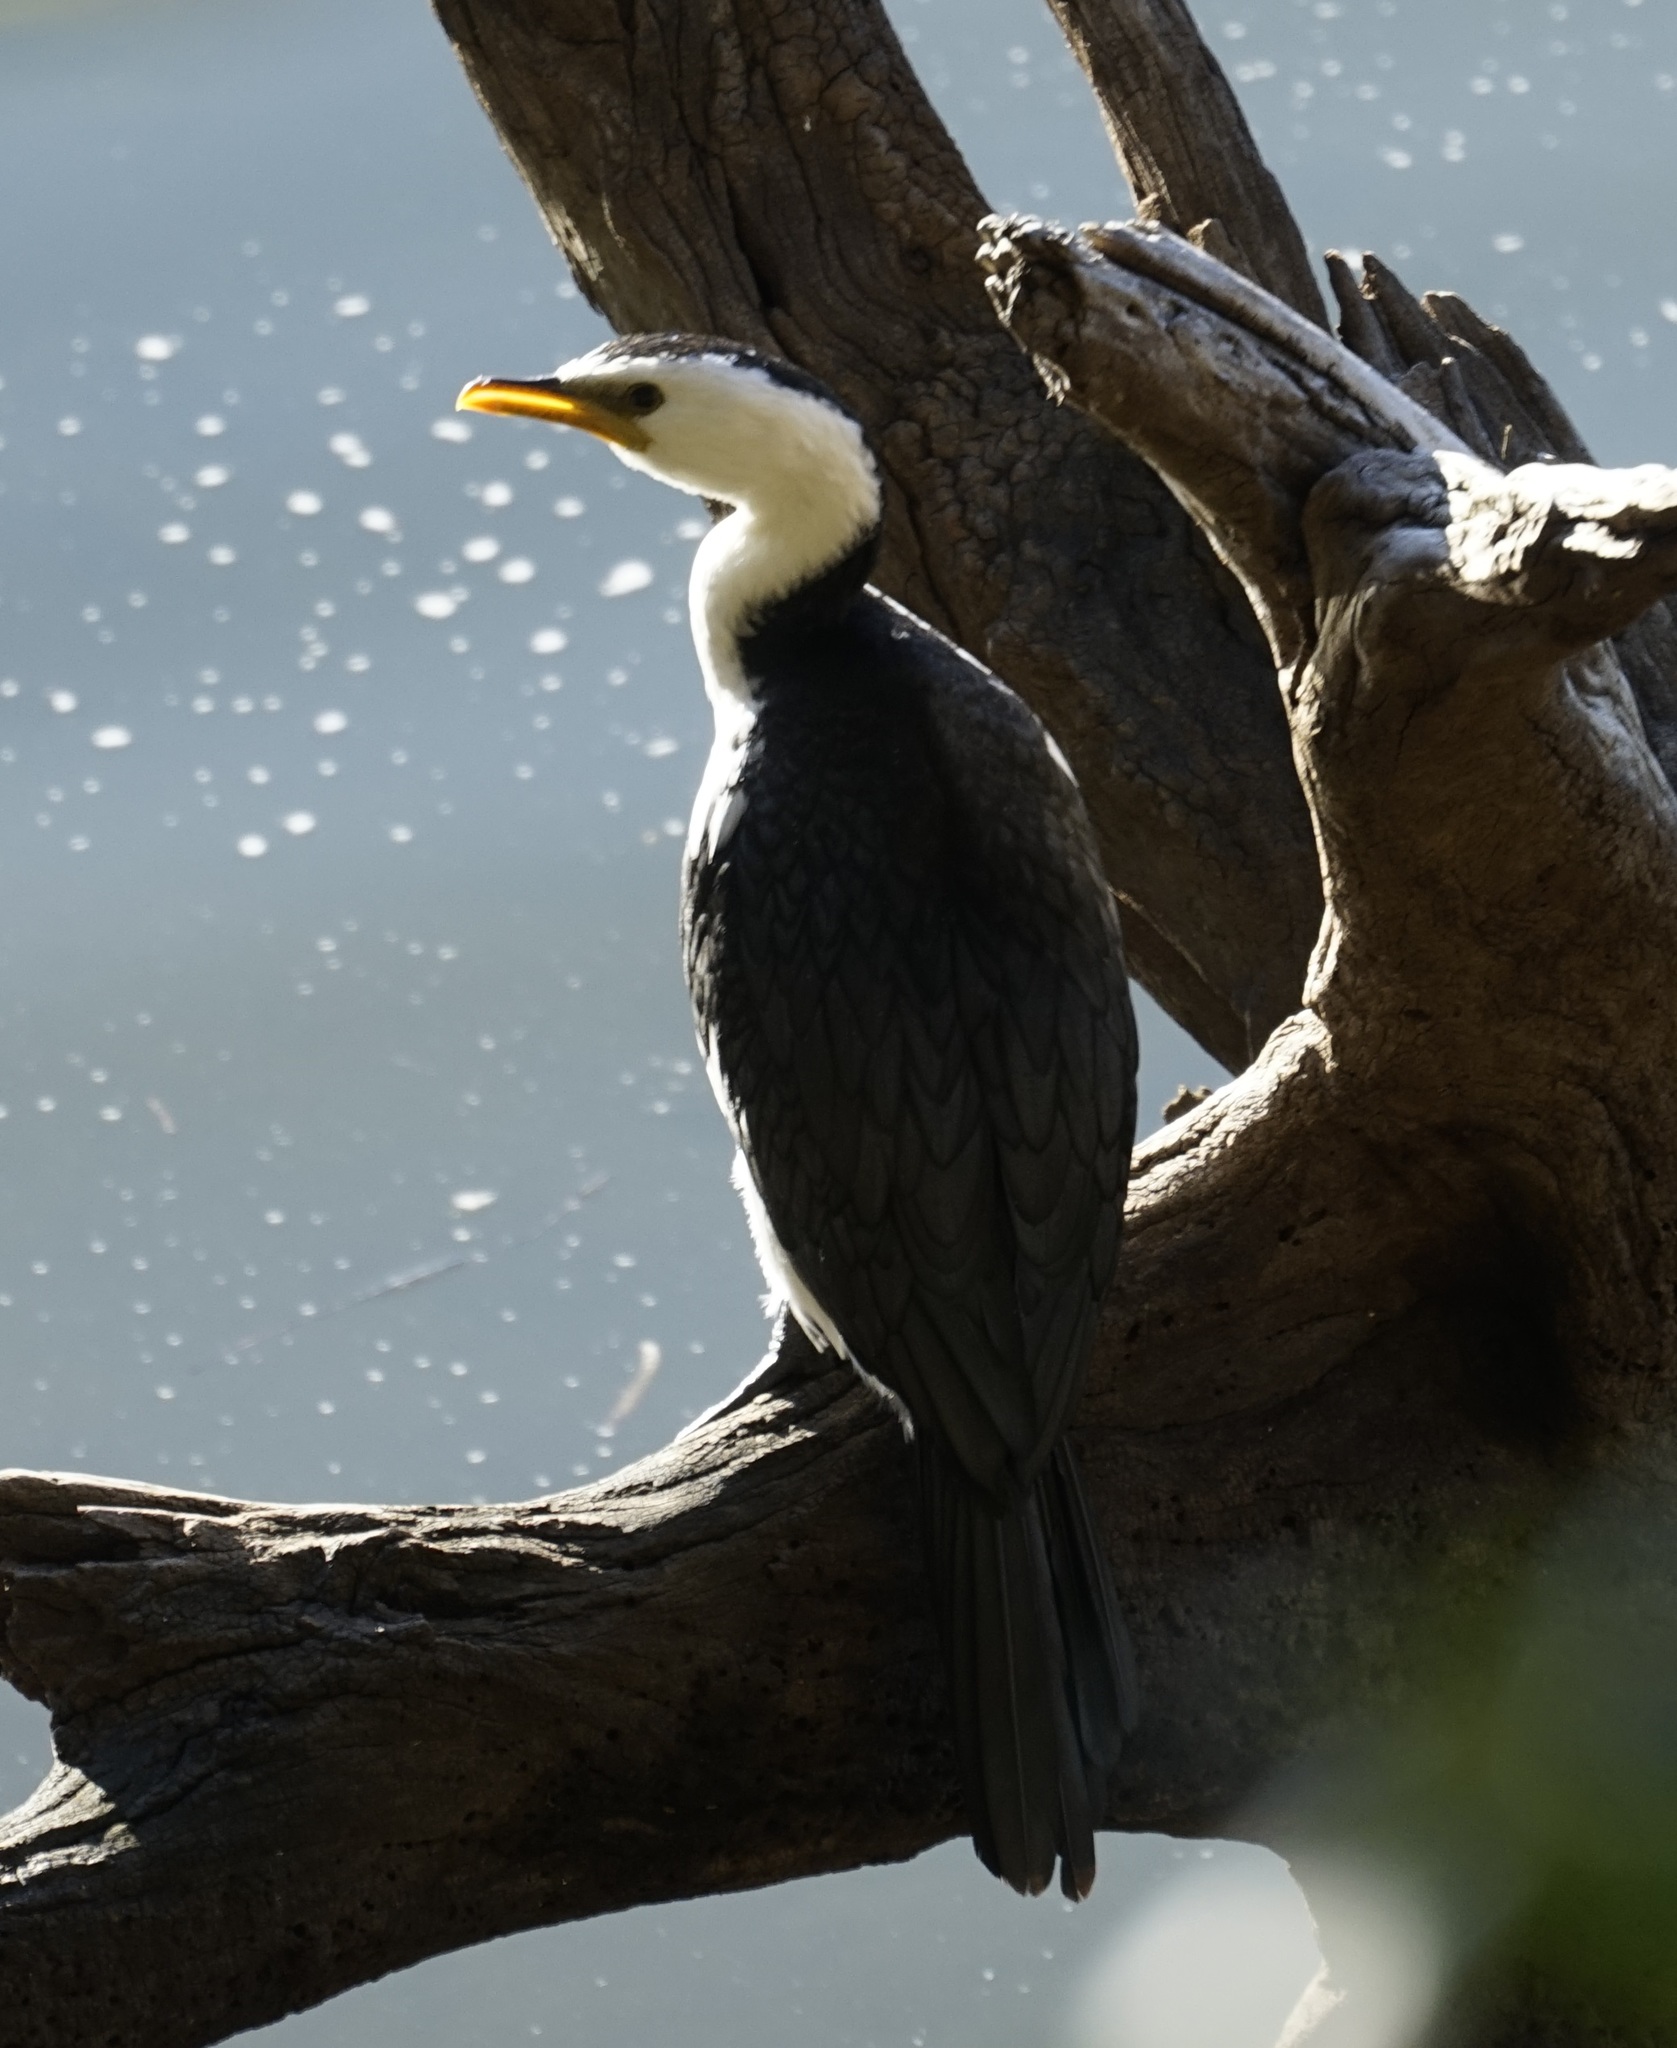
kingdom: Animalia
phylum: Chordata
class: Aves
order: Suliformes
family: Phalacrocoracidae
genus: Microcarbo
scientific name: Microcarbo melanoleucos
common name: Little pied cormorant
